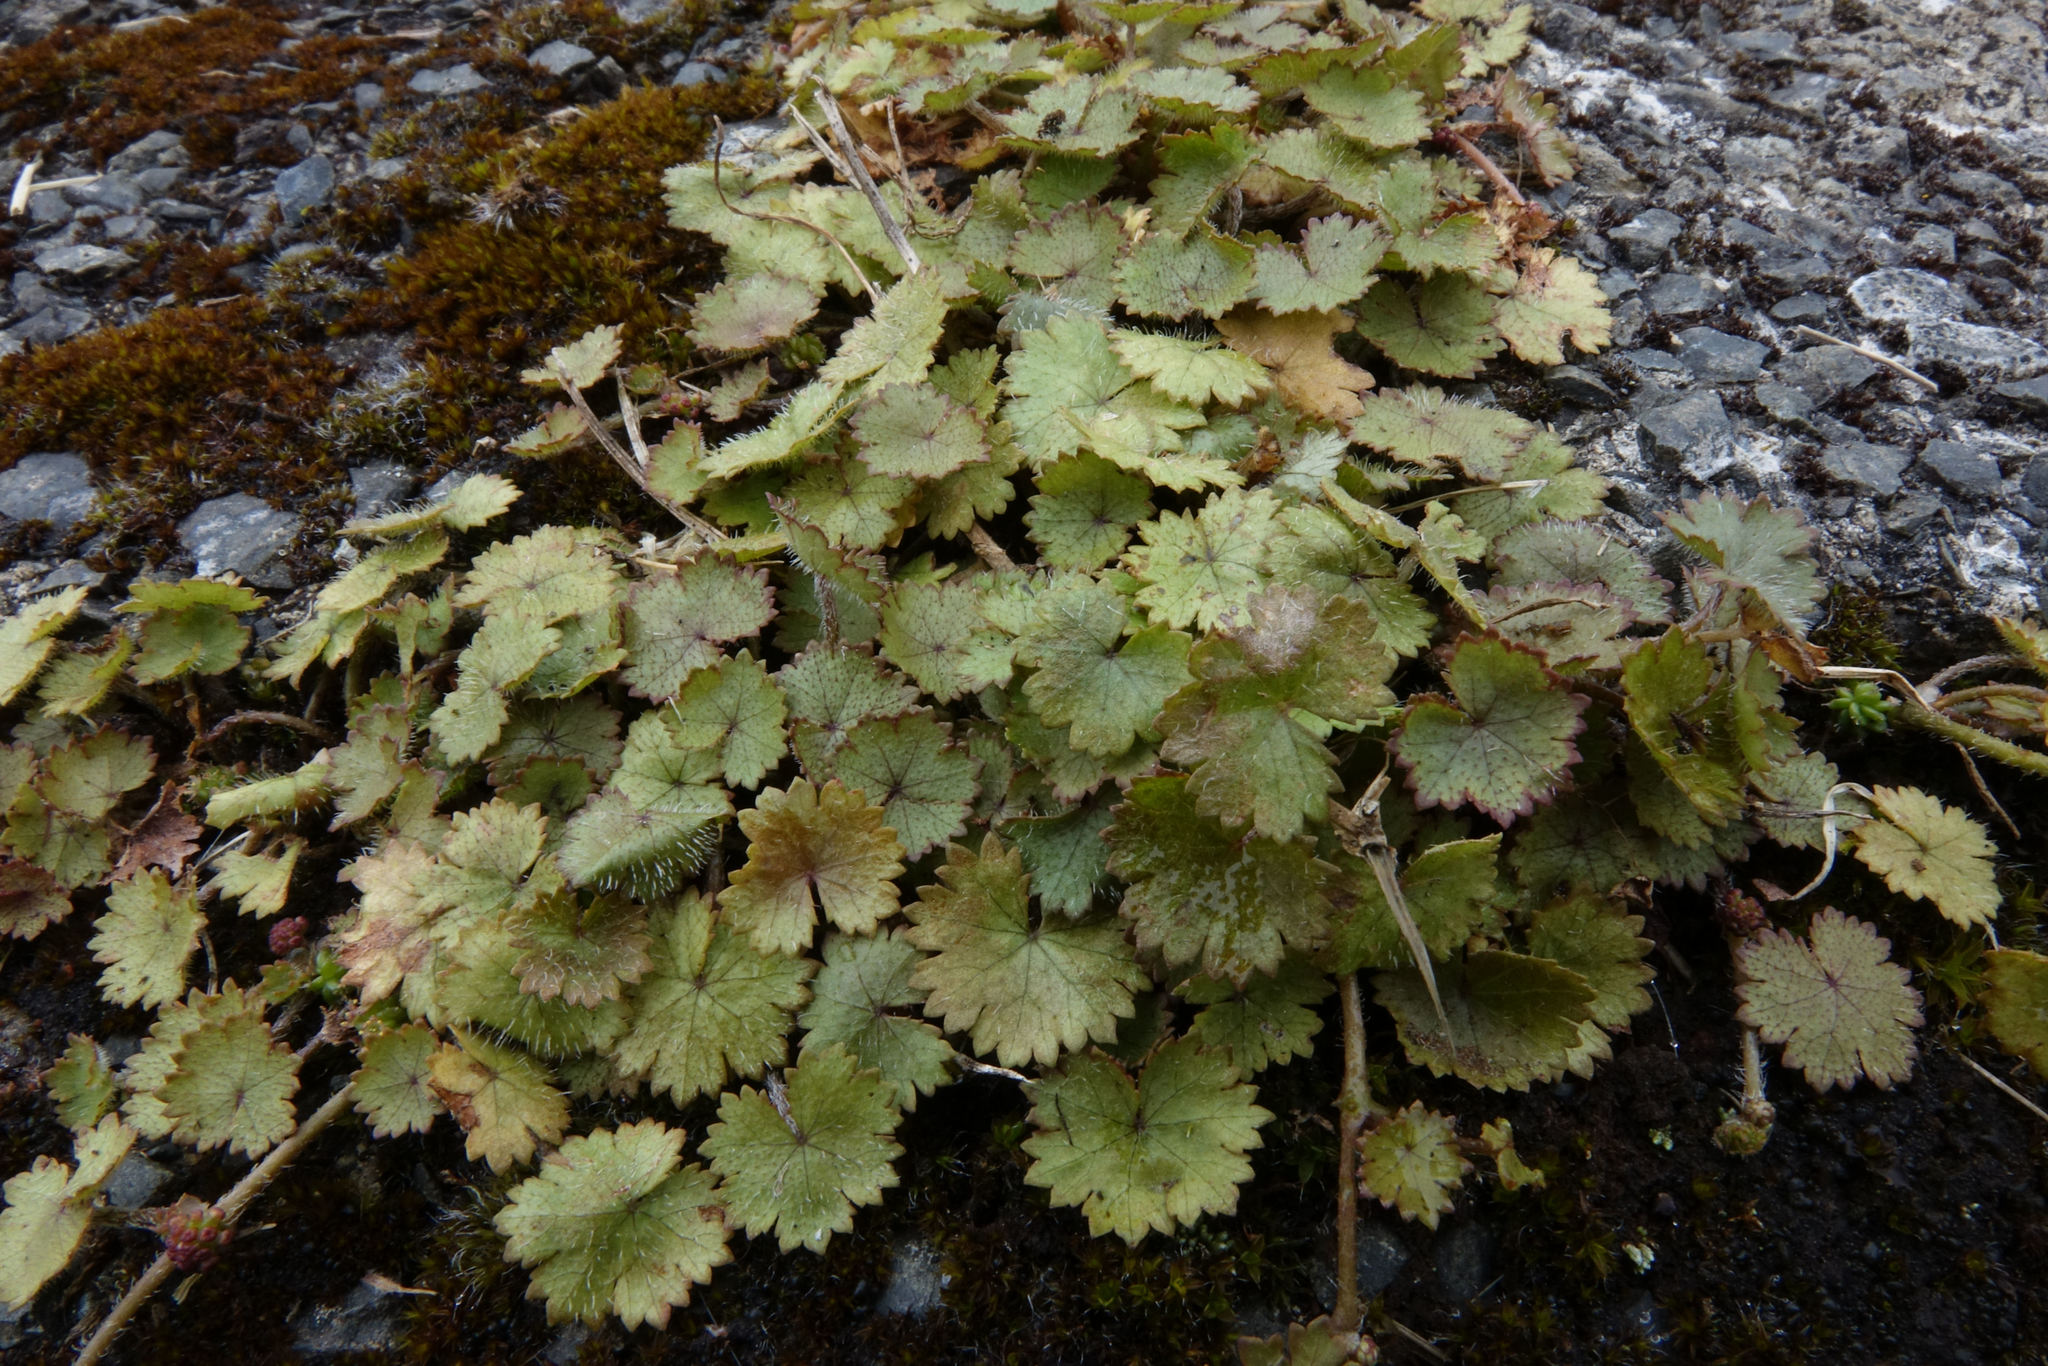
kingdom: Plantae
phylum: Tracheophyta
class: Magnoliopsida
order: Apiales
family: Araliaceae
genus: Hydrocotyle
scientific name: Hydrocotyle moschata
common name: Hairy pennywort
